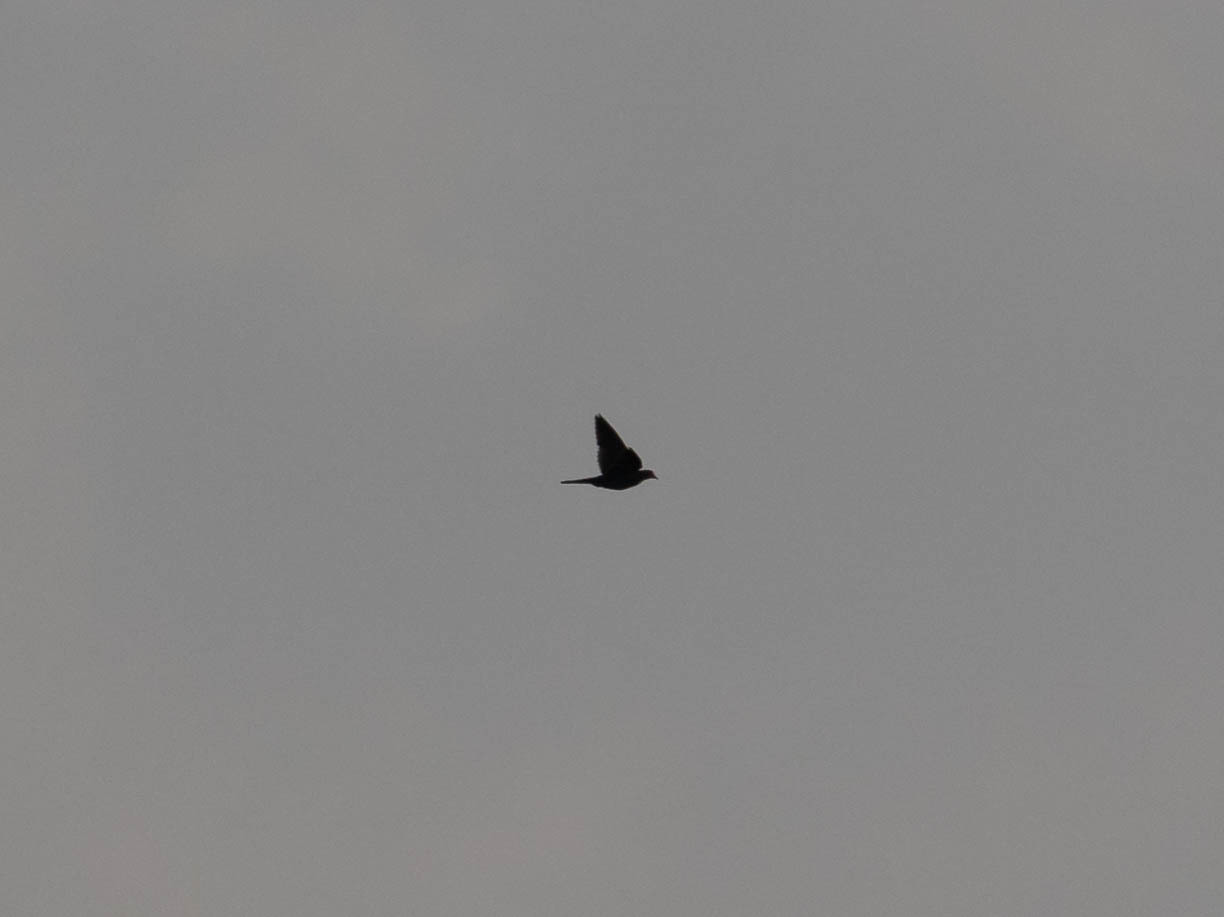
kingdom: Animalia
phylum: Chordata
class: Aves
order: Columbiformes
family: Columbidae
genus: Zenaida
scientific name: Zenaida macroura
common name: Mourning dove
